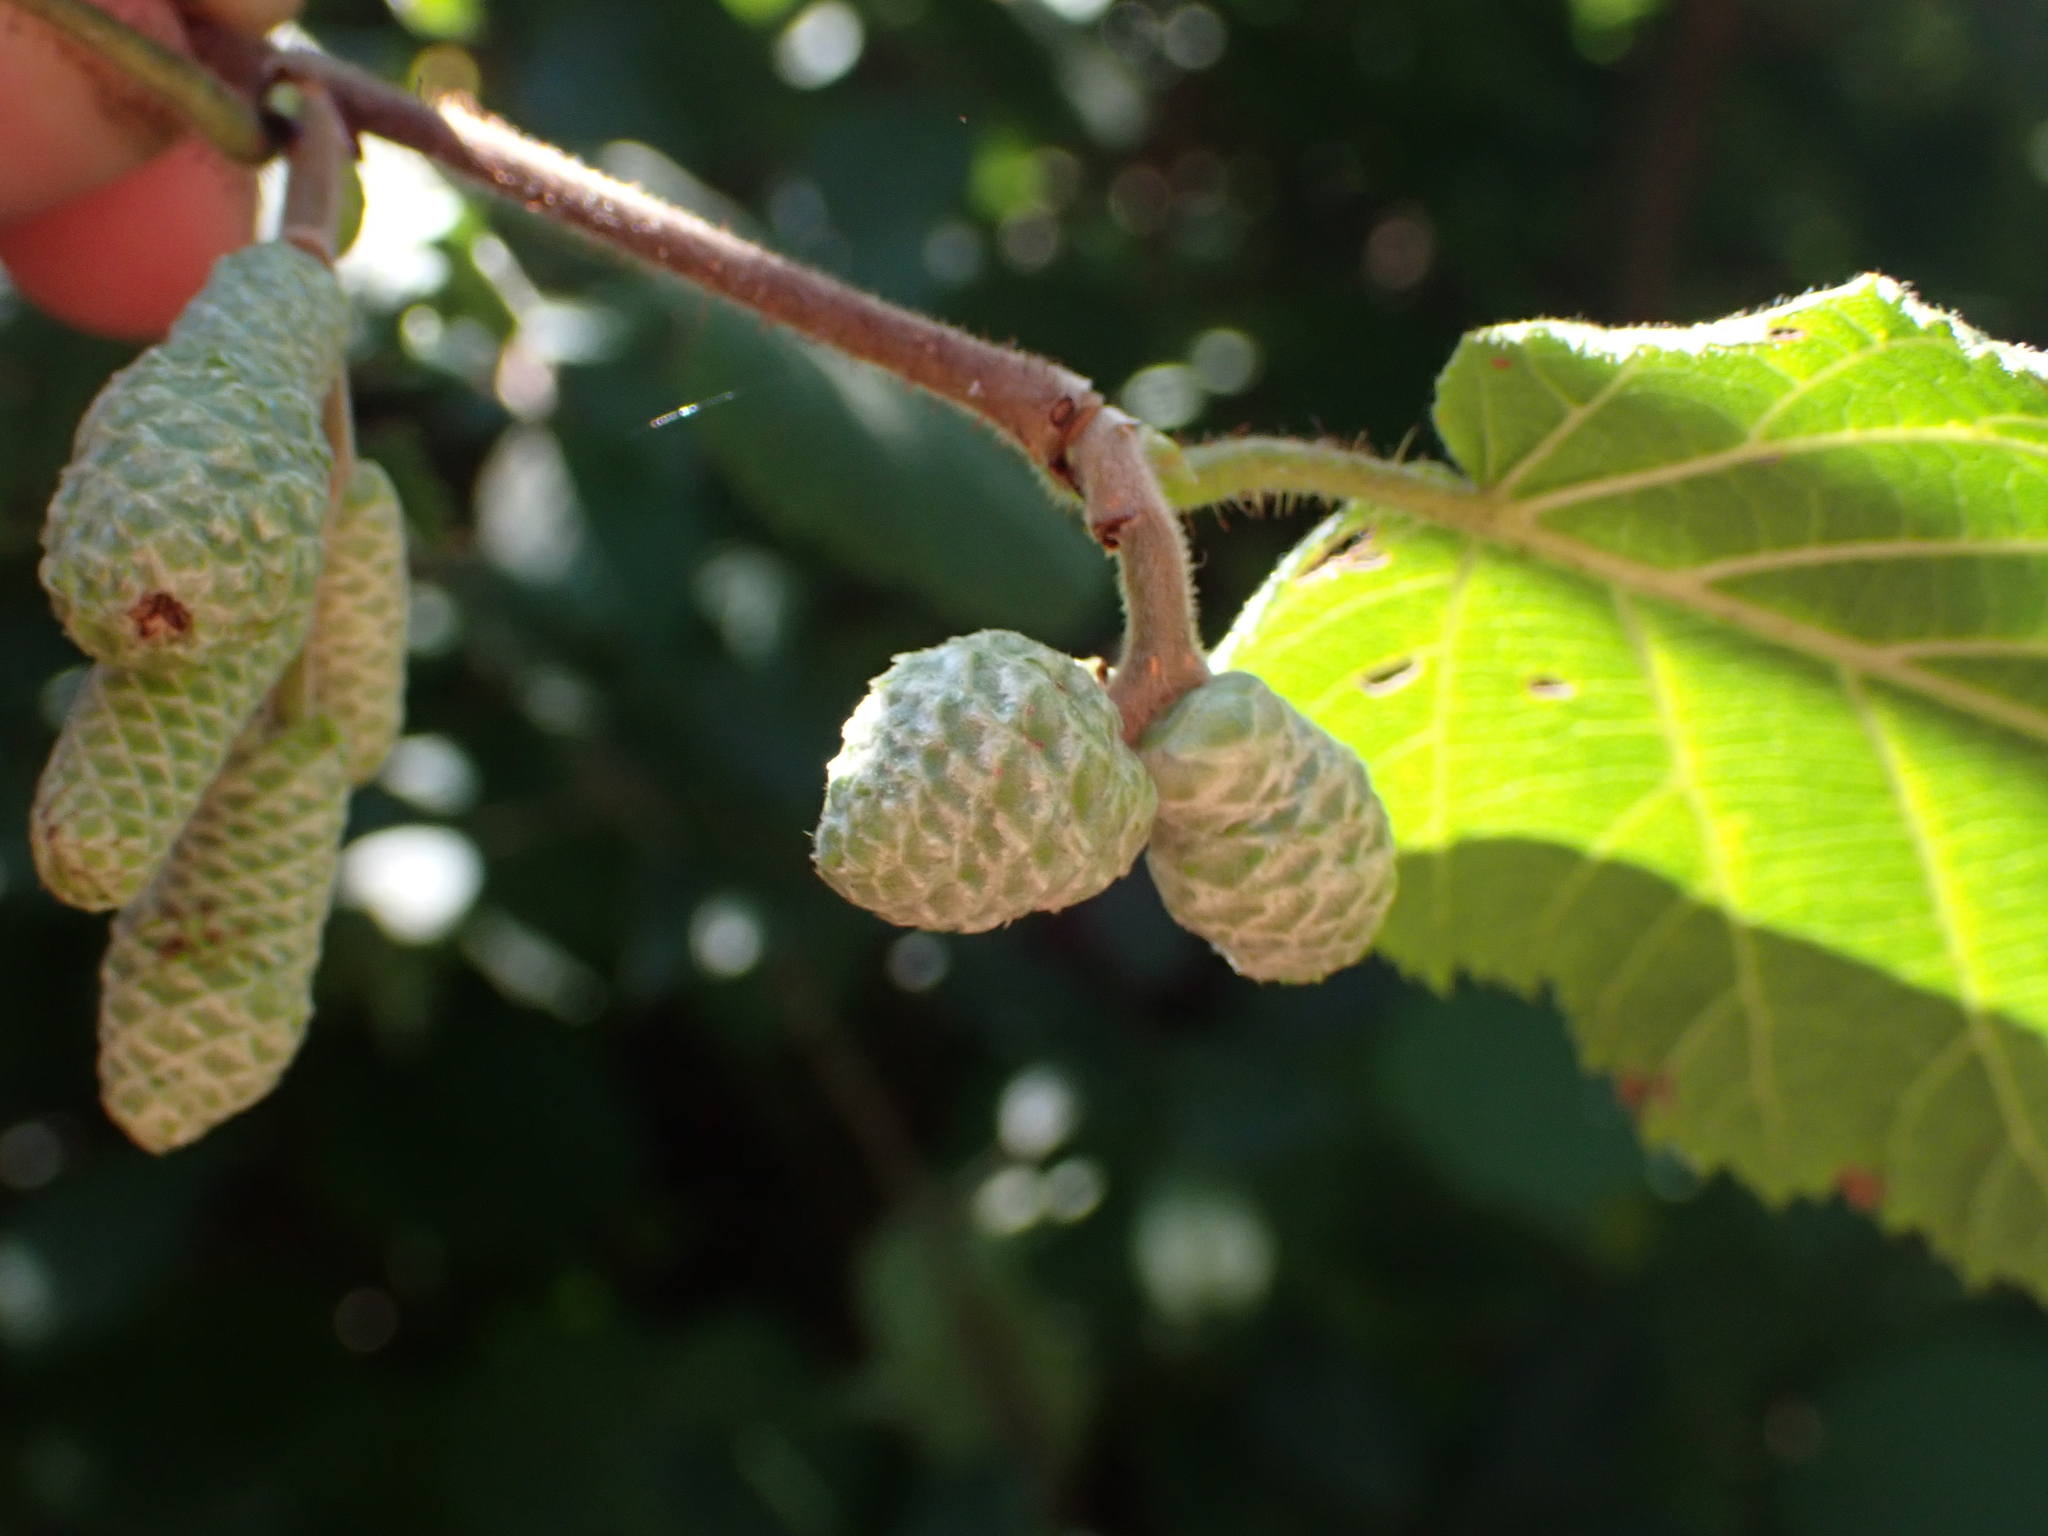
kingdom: Animalia
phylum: Arthropoda
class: Insecta
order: Diptera
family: Cecidomyiidae
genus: Contarinia
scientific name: Contarinia coryli
